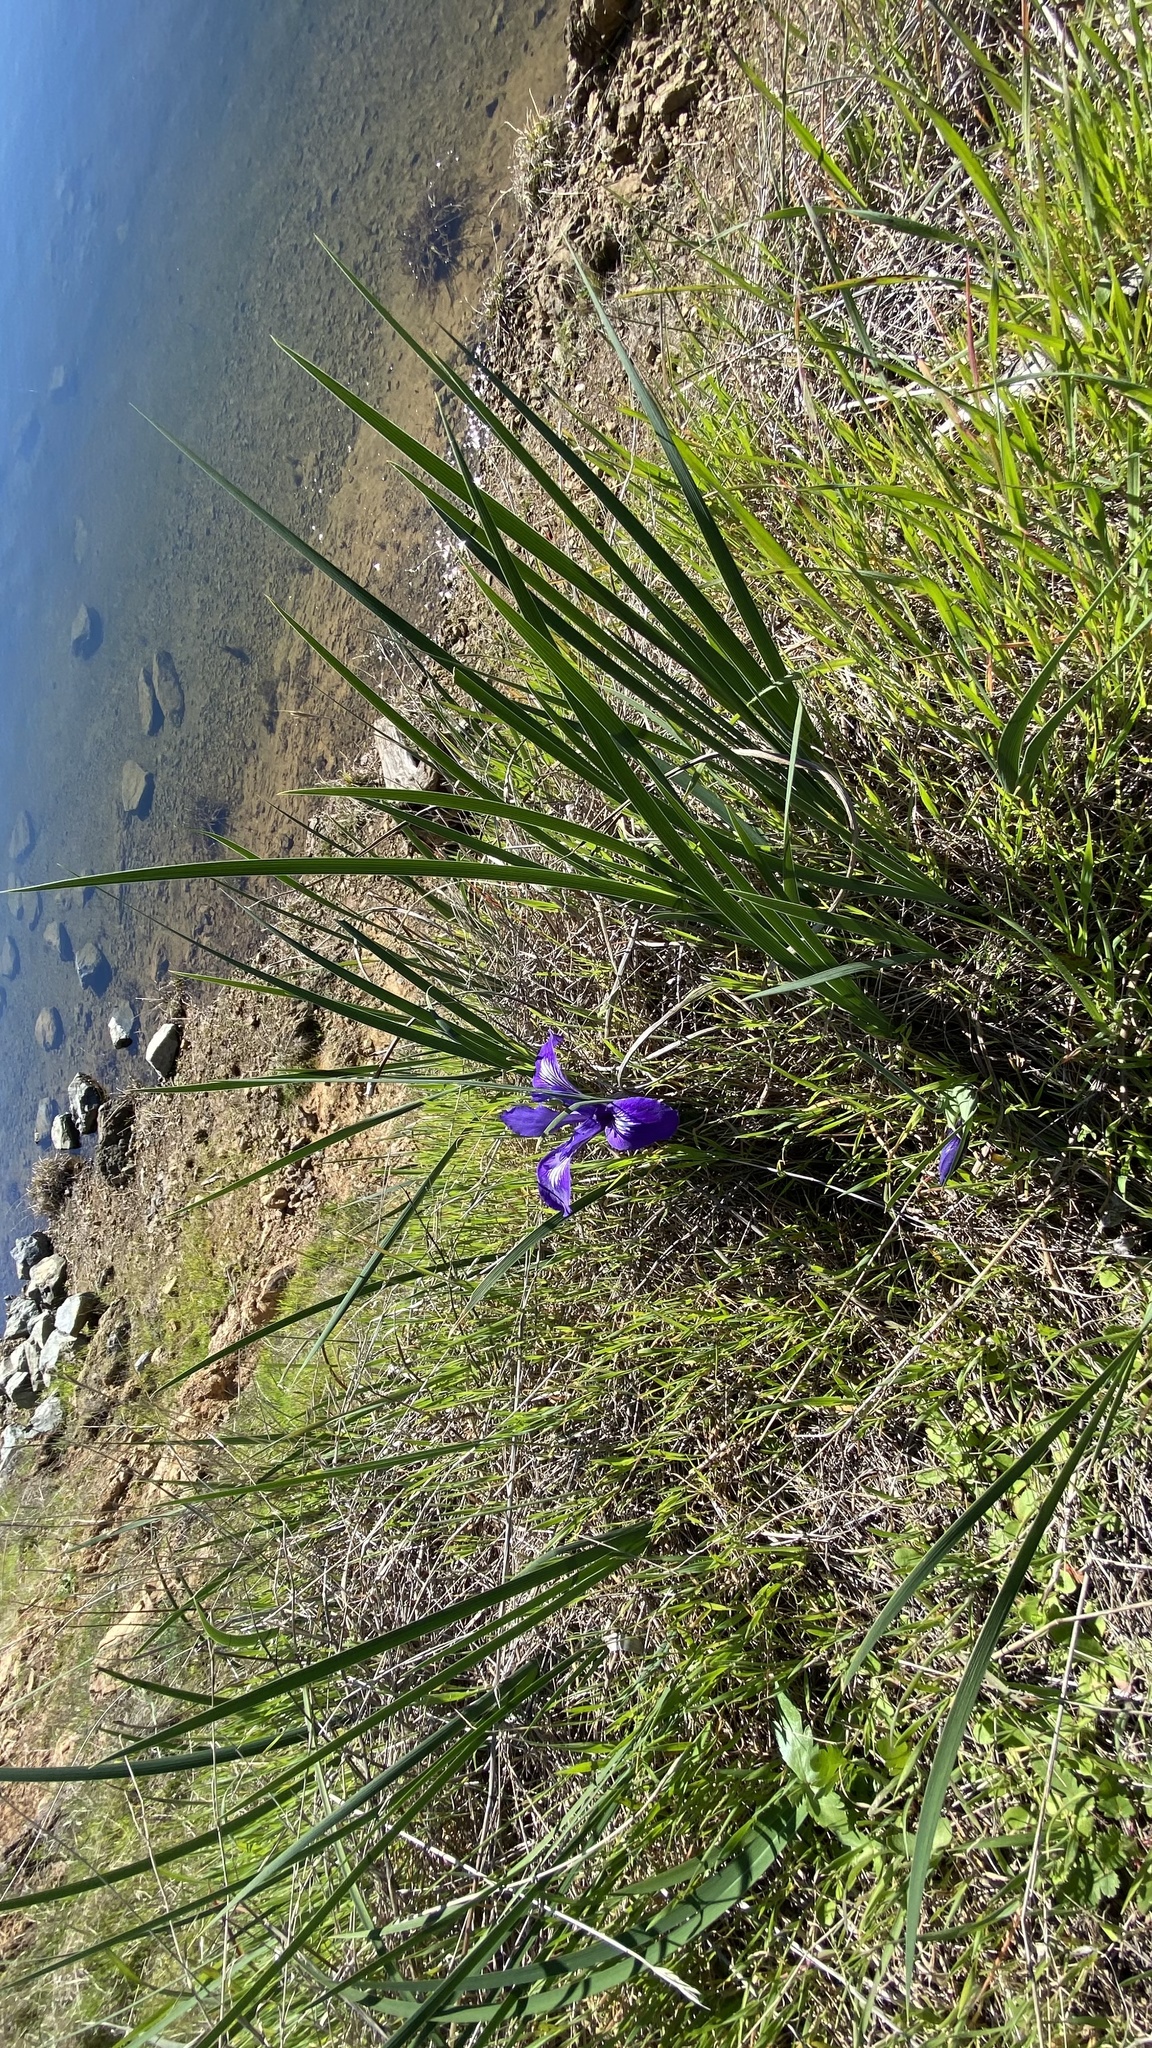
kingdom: Plantae
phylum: Tracheophyta
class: Liliopsida
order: Asparagales
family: Iridaceae
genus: Iris
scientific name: Iris macrosiphon
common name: Ground iris
